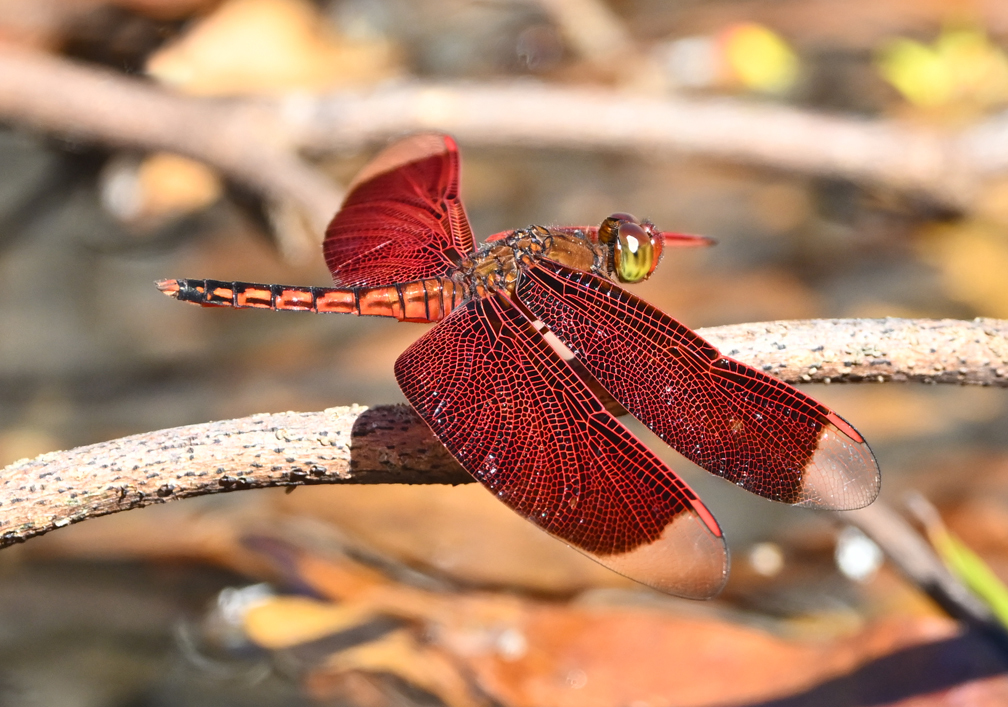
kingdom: Animalia
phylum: Arthropoda
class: Insecta
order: Odonata
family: Libellulidae
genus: Neurothemis
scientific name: Neurothemis taiwanensis
